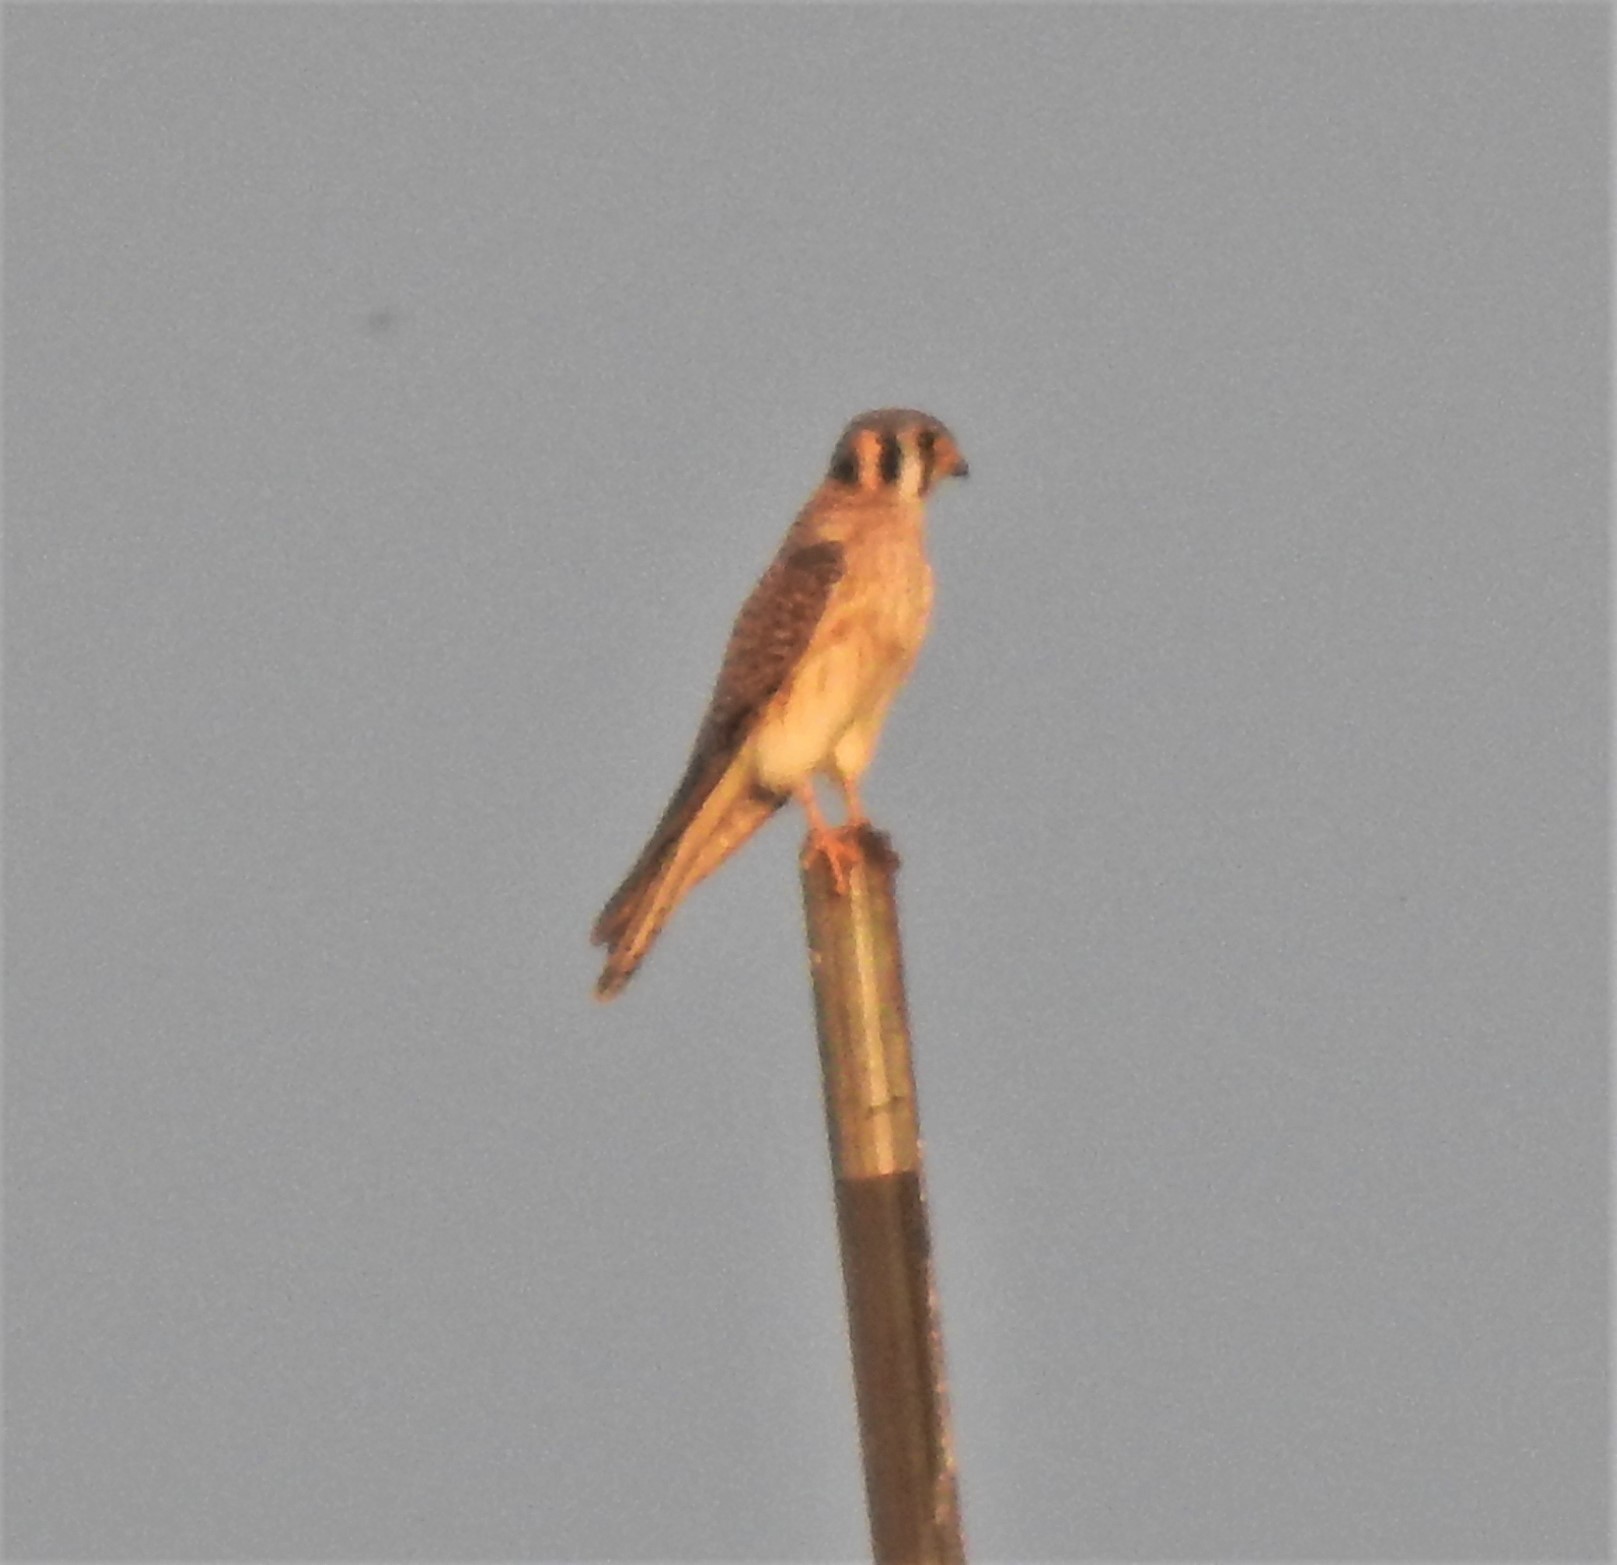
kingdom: Animalia
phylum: Chordata
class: Aves
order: Falconiformes
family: Falconidae
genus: Falco
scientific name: Falco sparverius
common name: American kestrel
